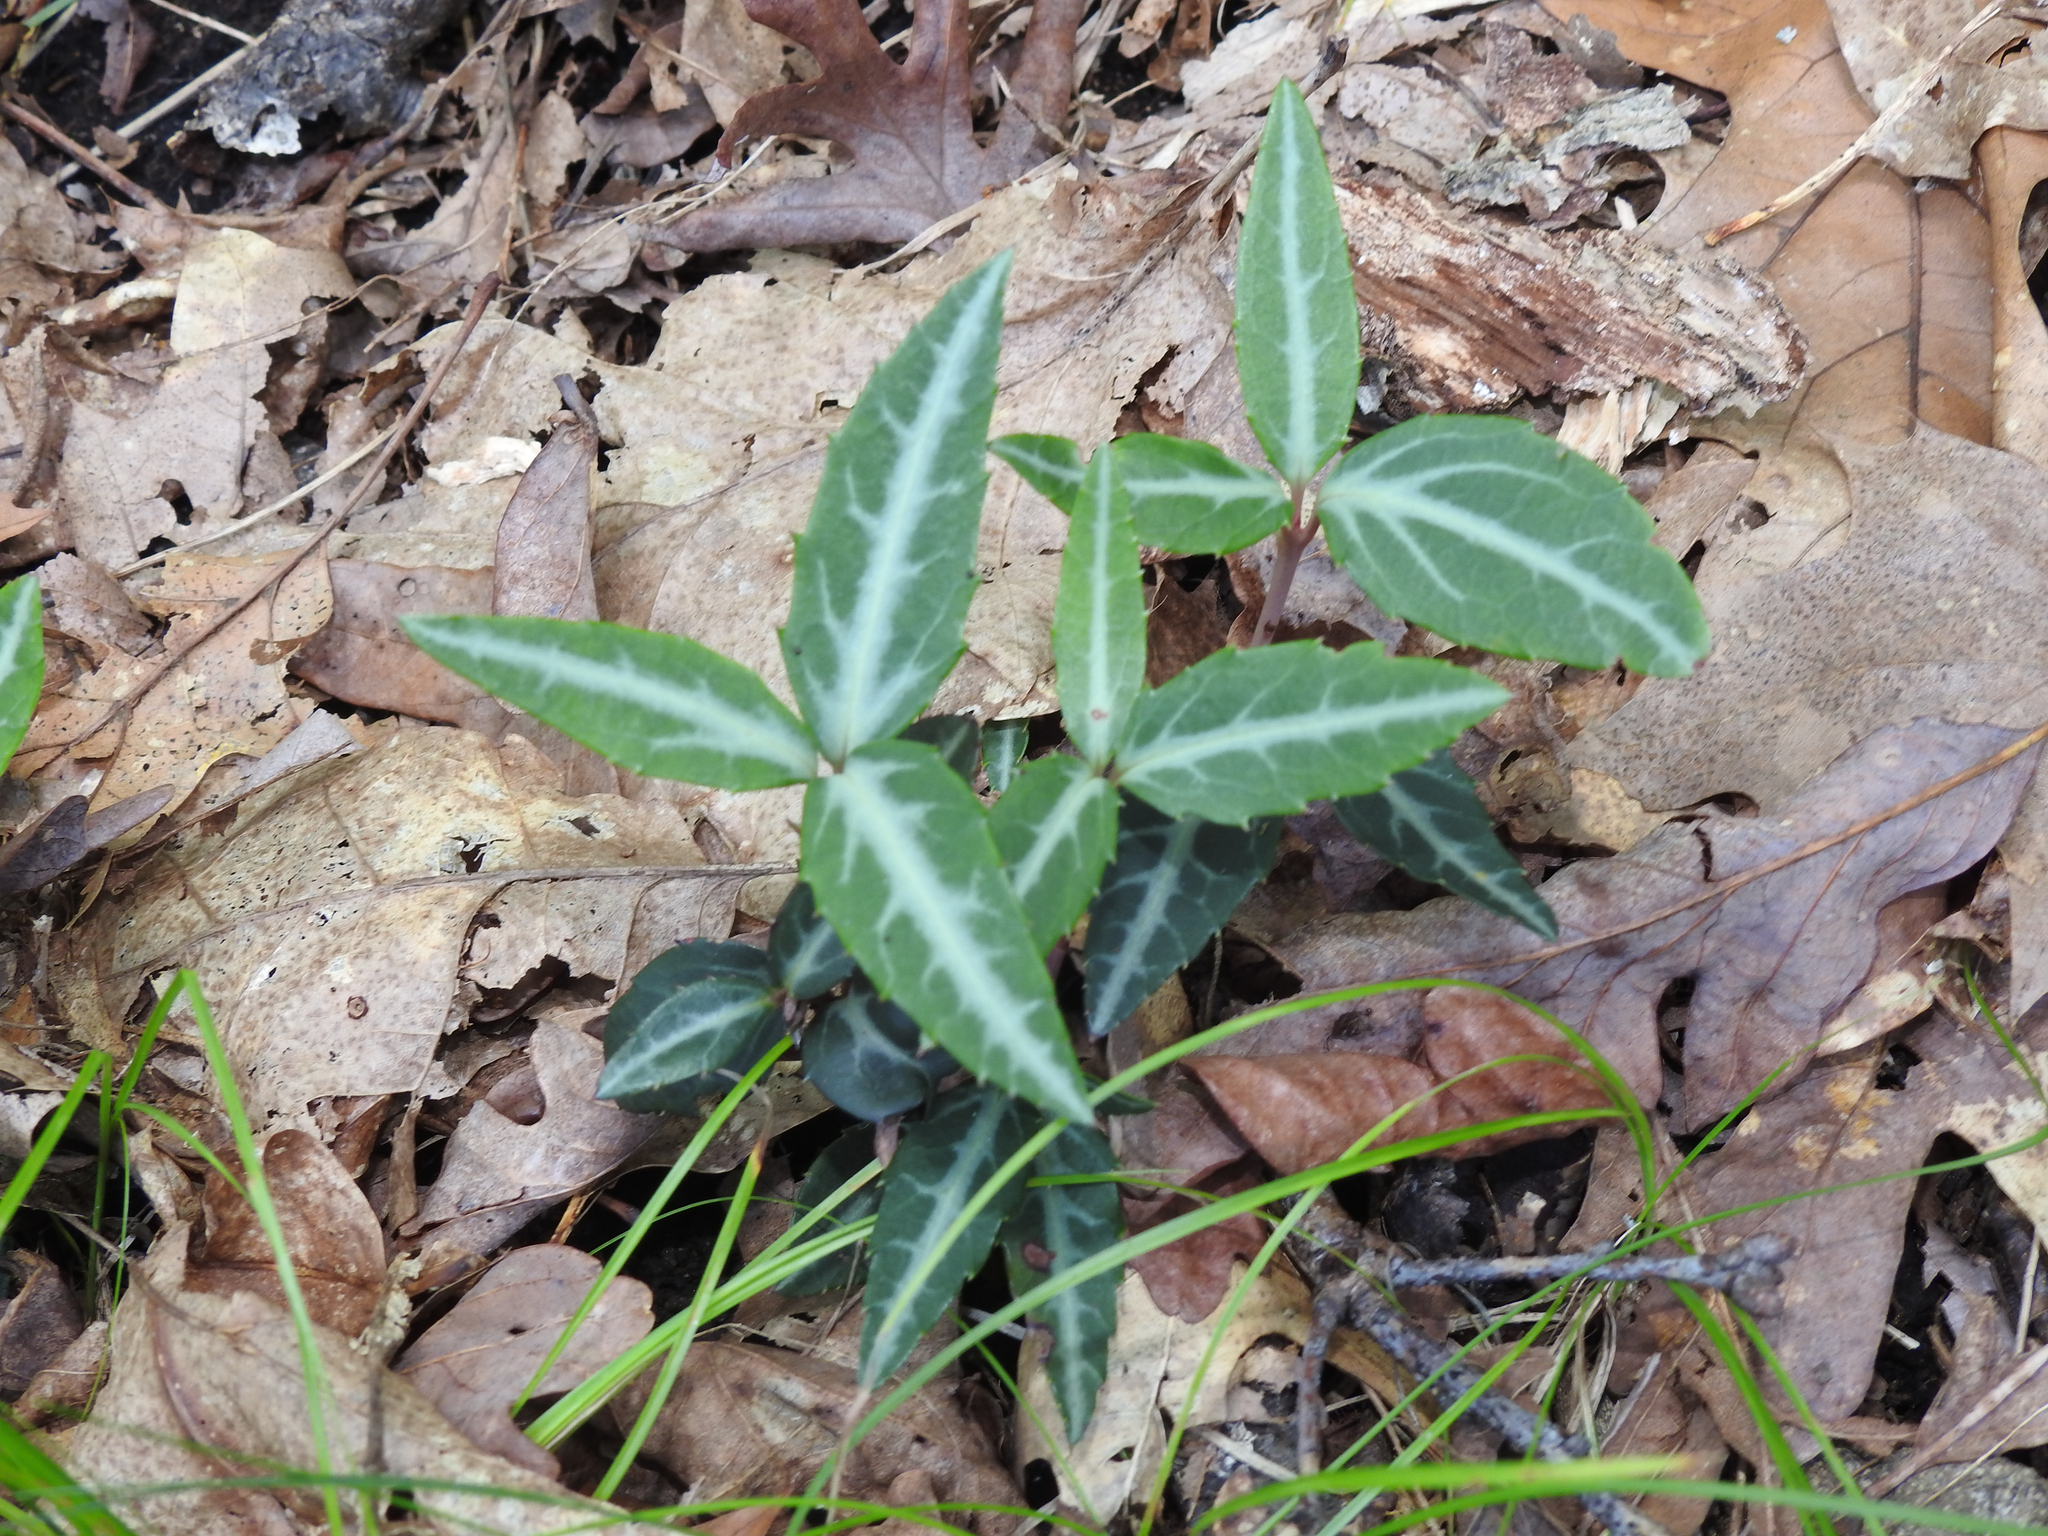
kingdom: Plantae
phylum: Tracheophyta
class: Magnoliopsida
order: Ericales
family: Ericaceae
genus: Chimaphila
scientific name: Chimaphila maculata
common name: Spotted pipsissewa
